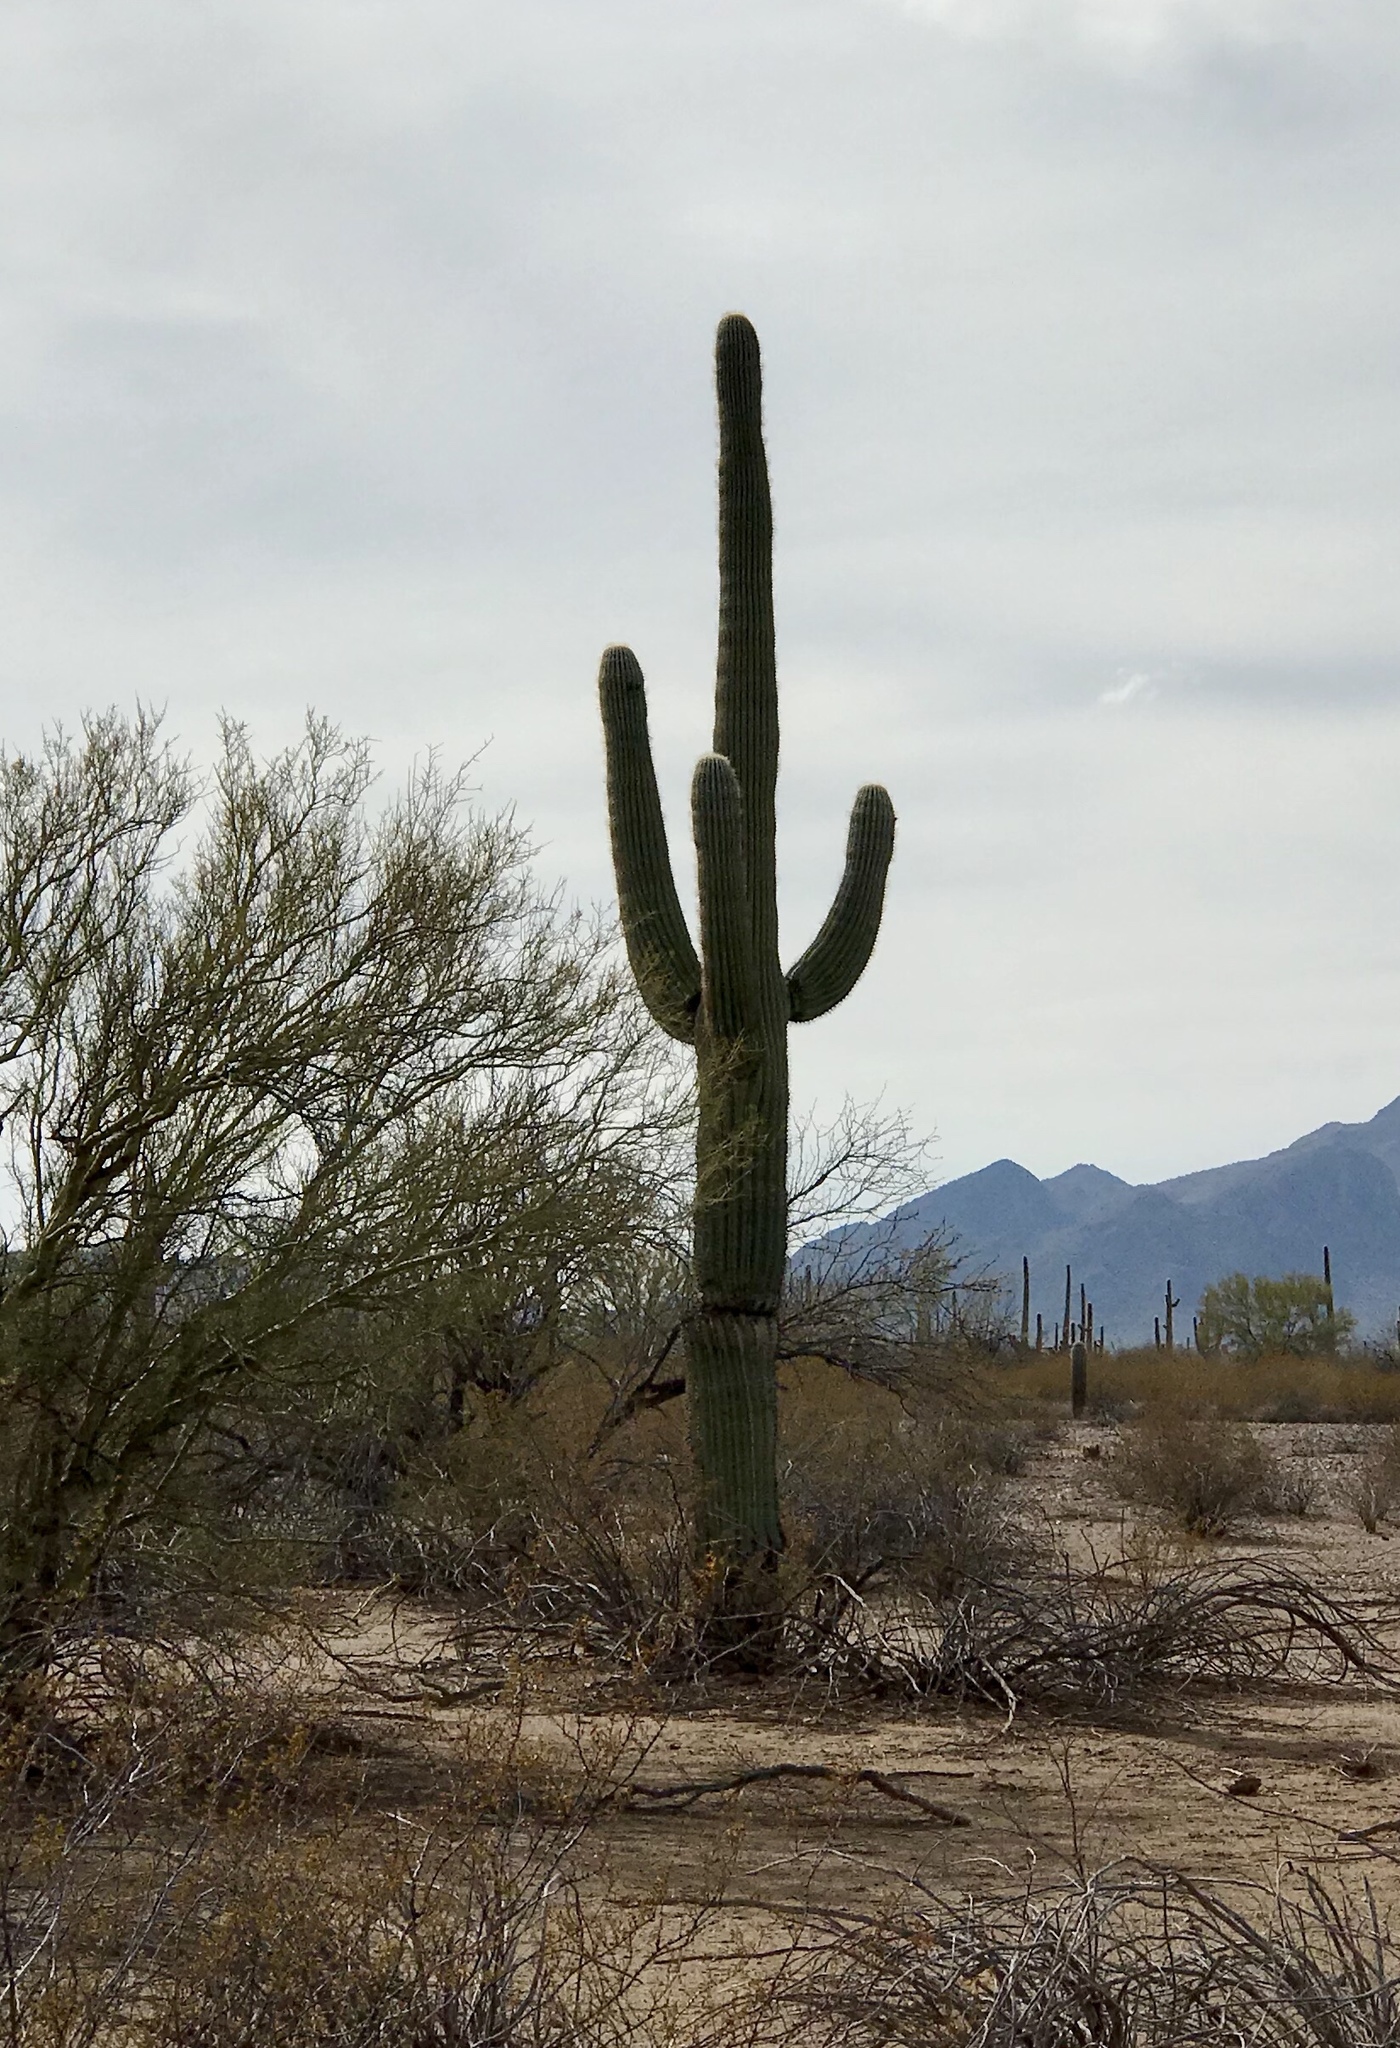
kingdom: Plantae
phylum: Tracheophyta
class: Magnoliopsida
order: Caryophyllales
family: Cactaceae
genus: Carnegiea
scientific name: Carnegiea gigantea
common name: Saguaro
